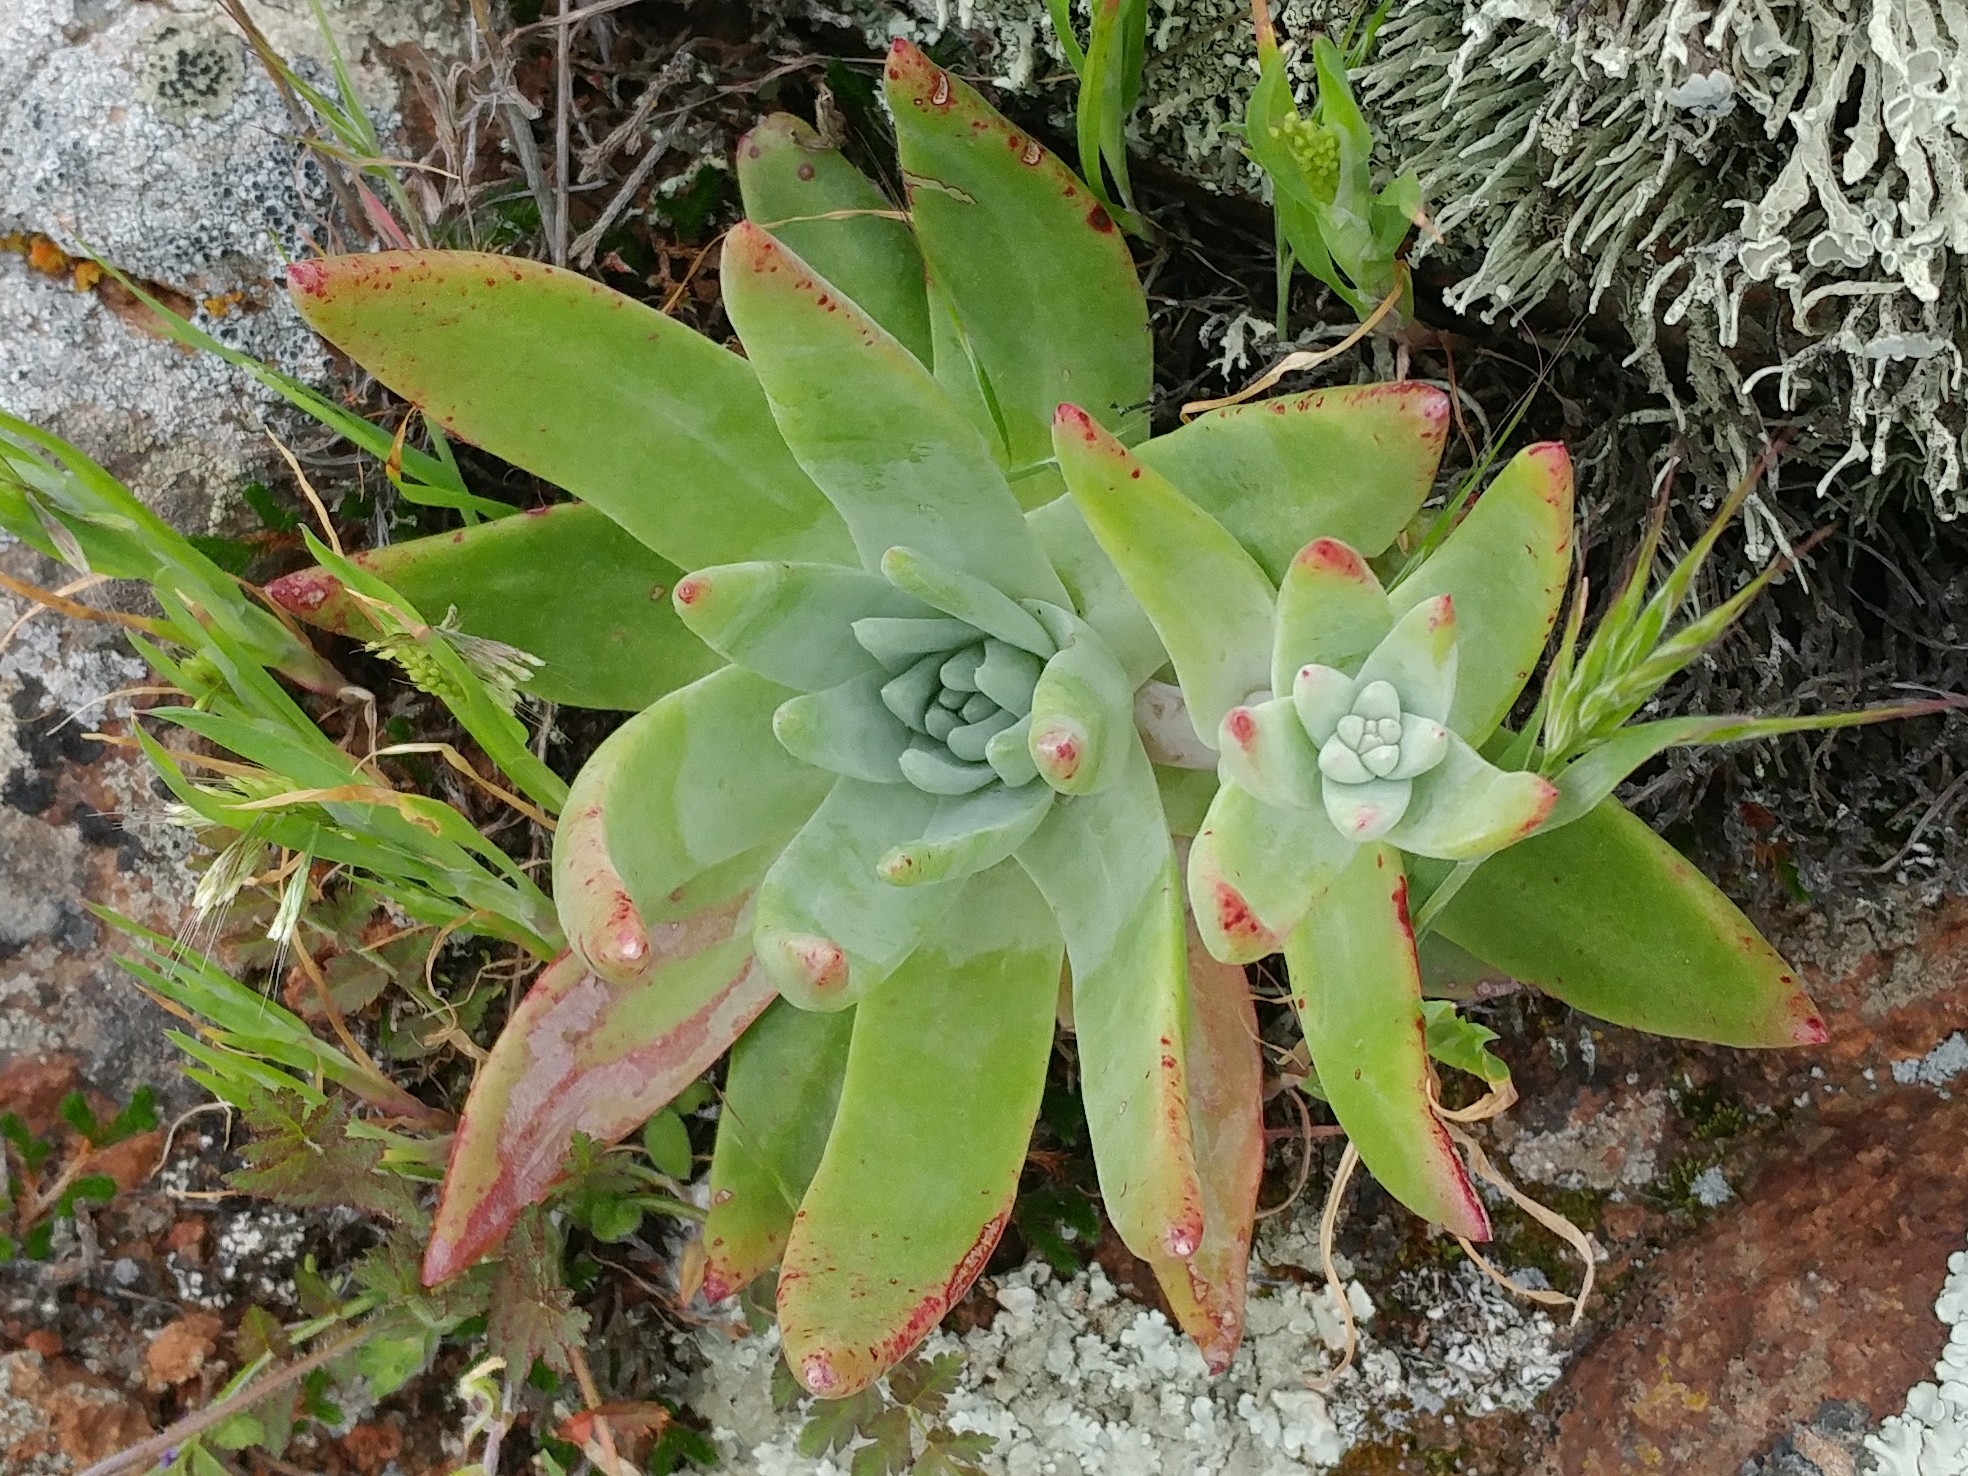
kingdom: Plantae
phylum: Tracheophyta
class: Magnoliopsida
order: Saxifragales
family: Crassulaceae
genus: Dudleya
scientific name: Dudleya virens
